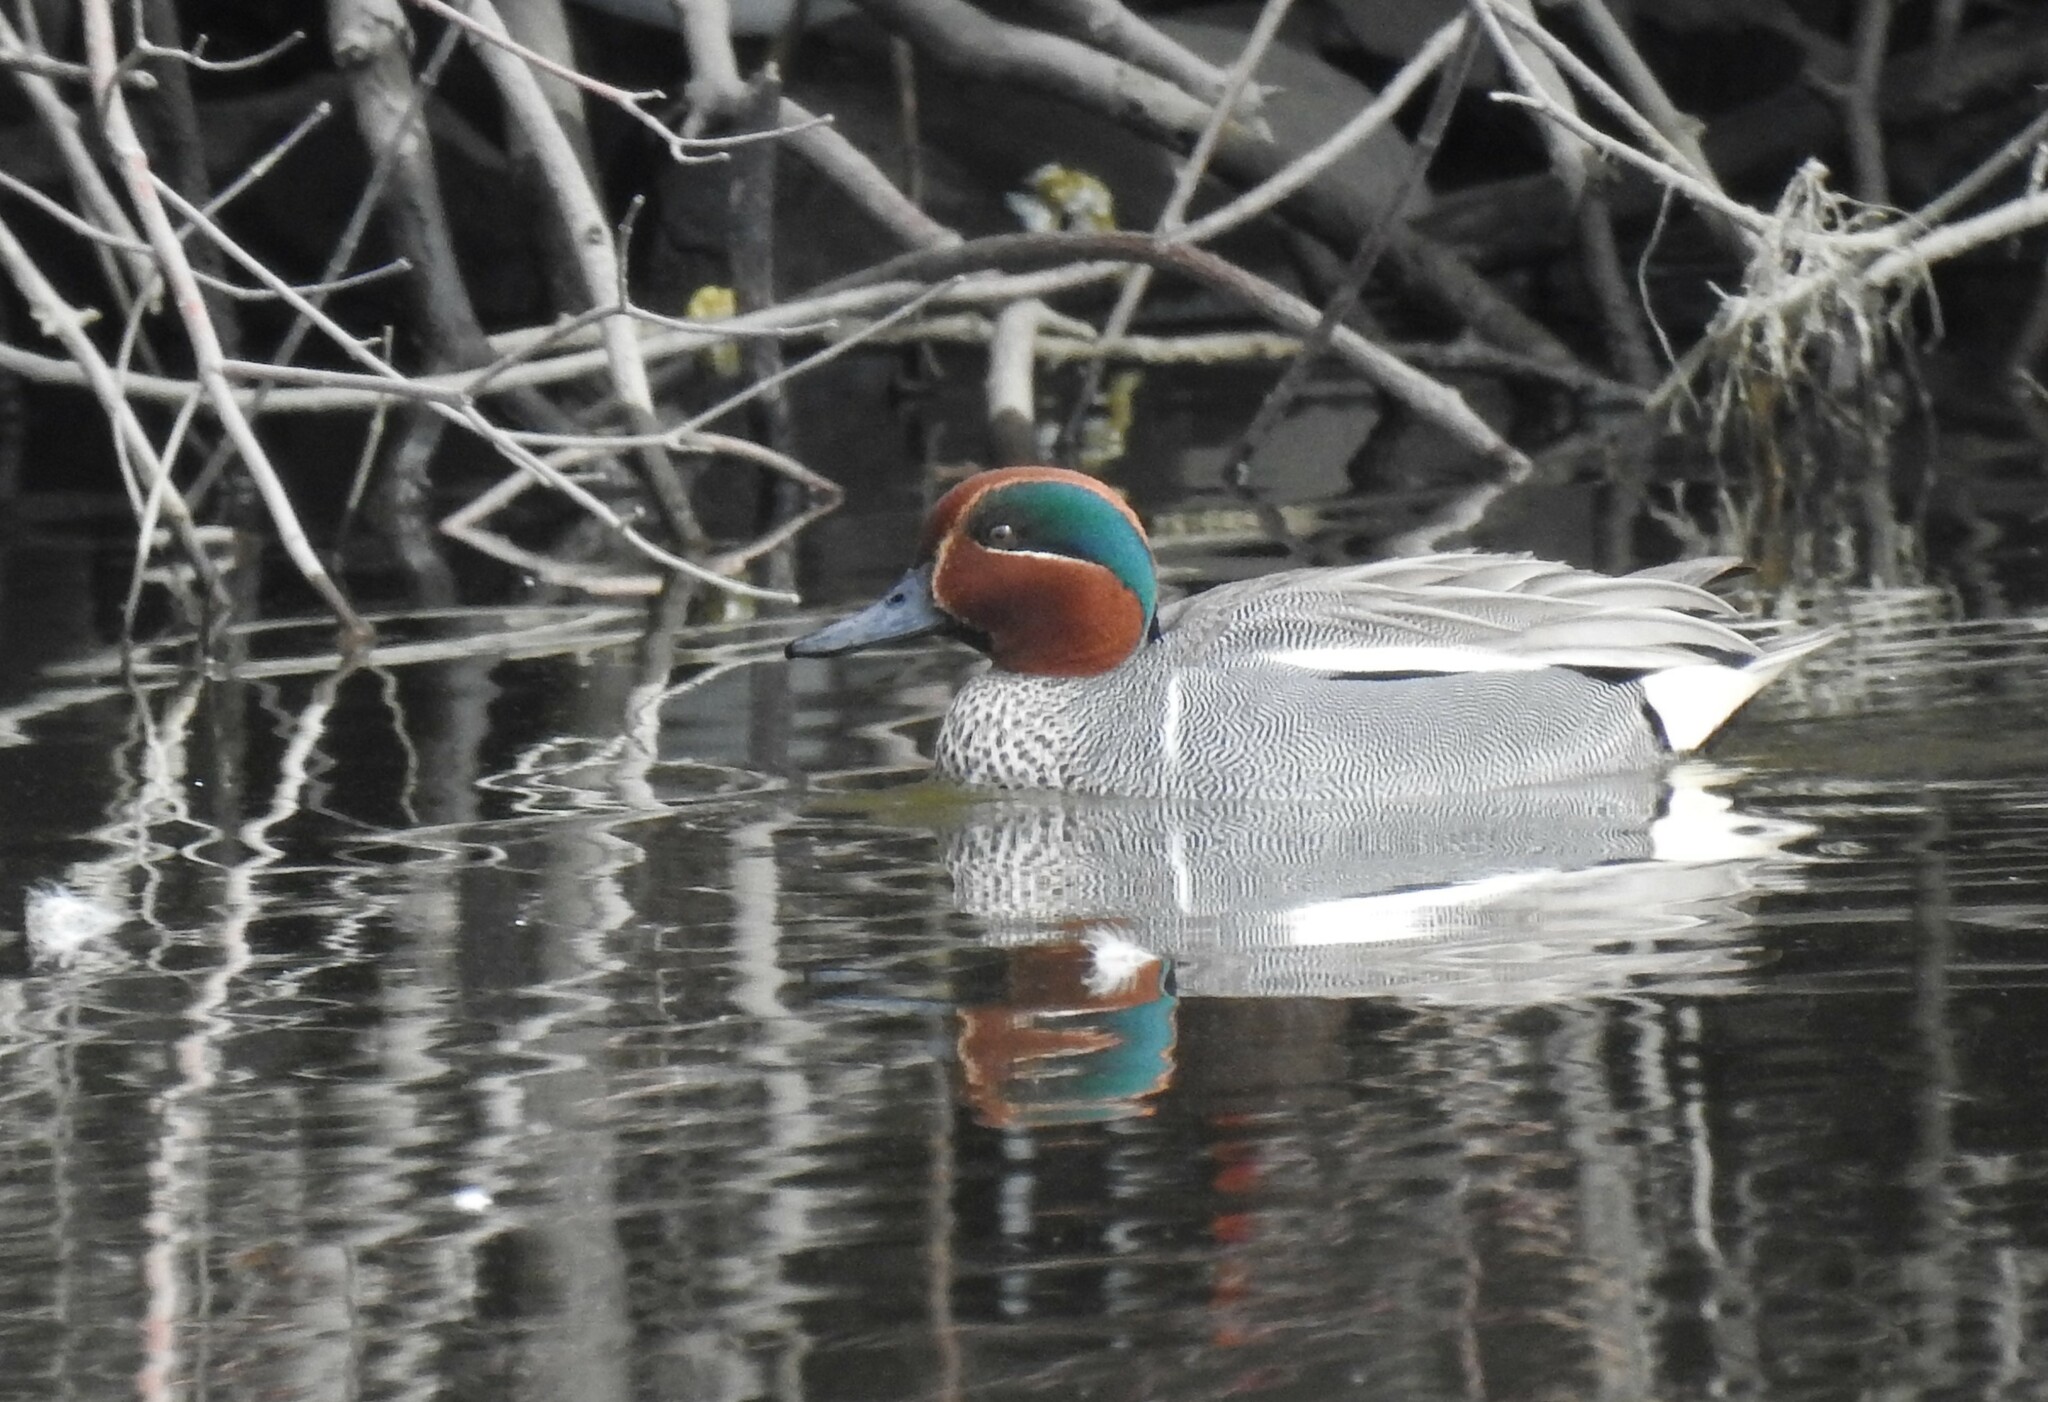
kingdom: Animalia
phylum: Chordata
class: Aves
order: Anseriformes
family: Anatidae
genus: Anas
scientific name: Anas
